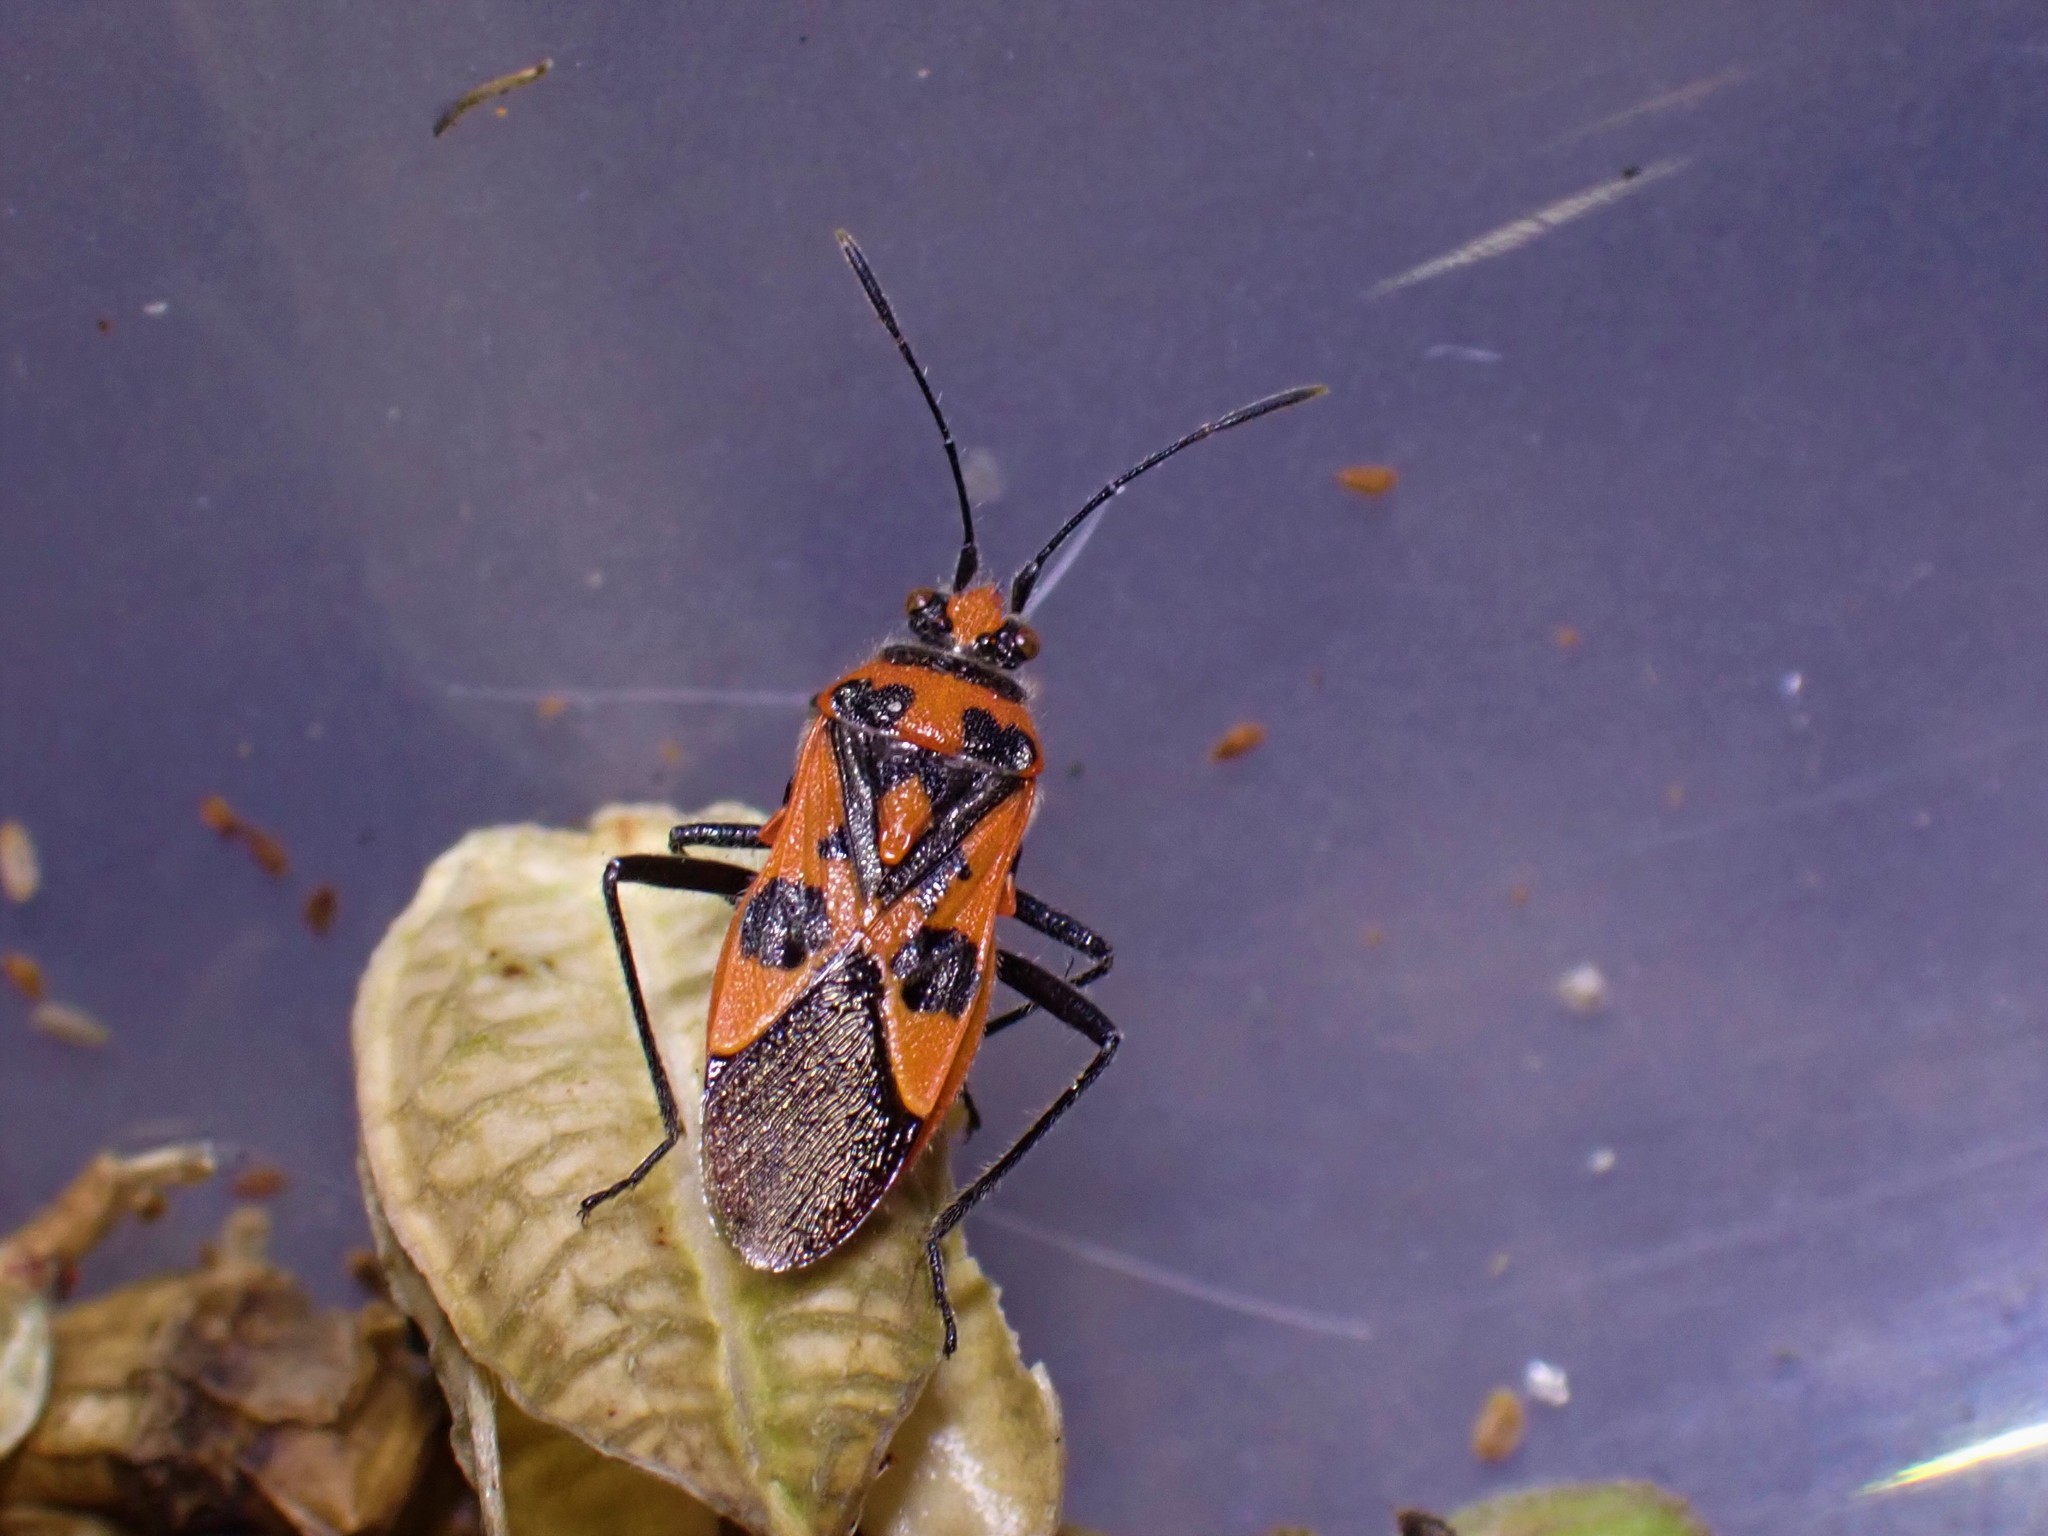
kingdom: Animalia
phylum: Arthropoda
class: Insecta
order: Hemiptera
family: Rhopalidae
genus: Corizus
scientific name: Corizus hyoscyami
